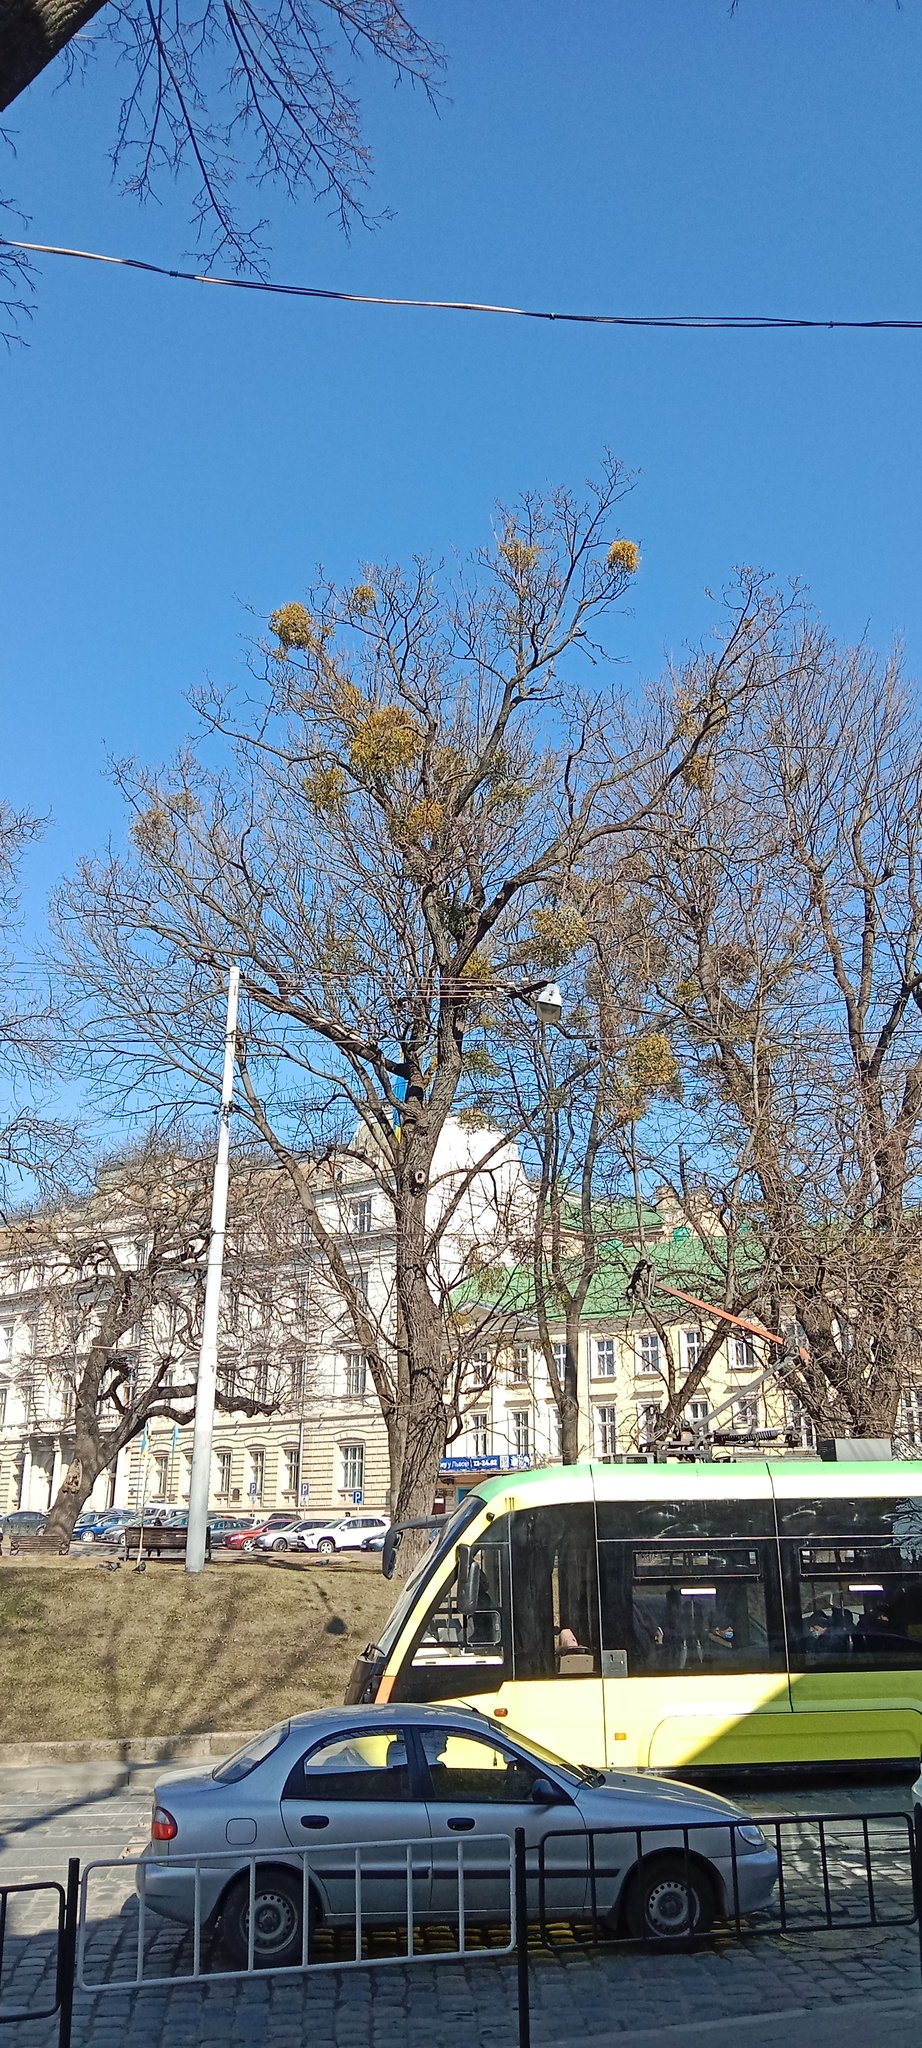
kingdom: Plantae
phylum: Tracheophyta
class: Magnoliopsida
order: Santalales
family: Viscaceae
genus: Viscum
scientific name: Viscum album
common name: Mistletoe
